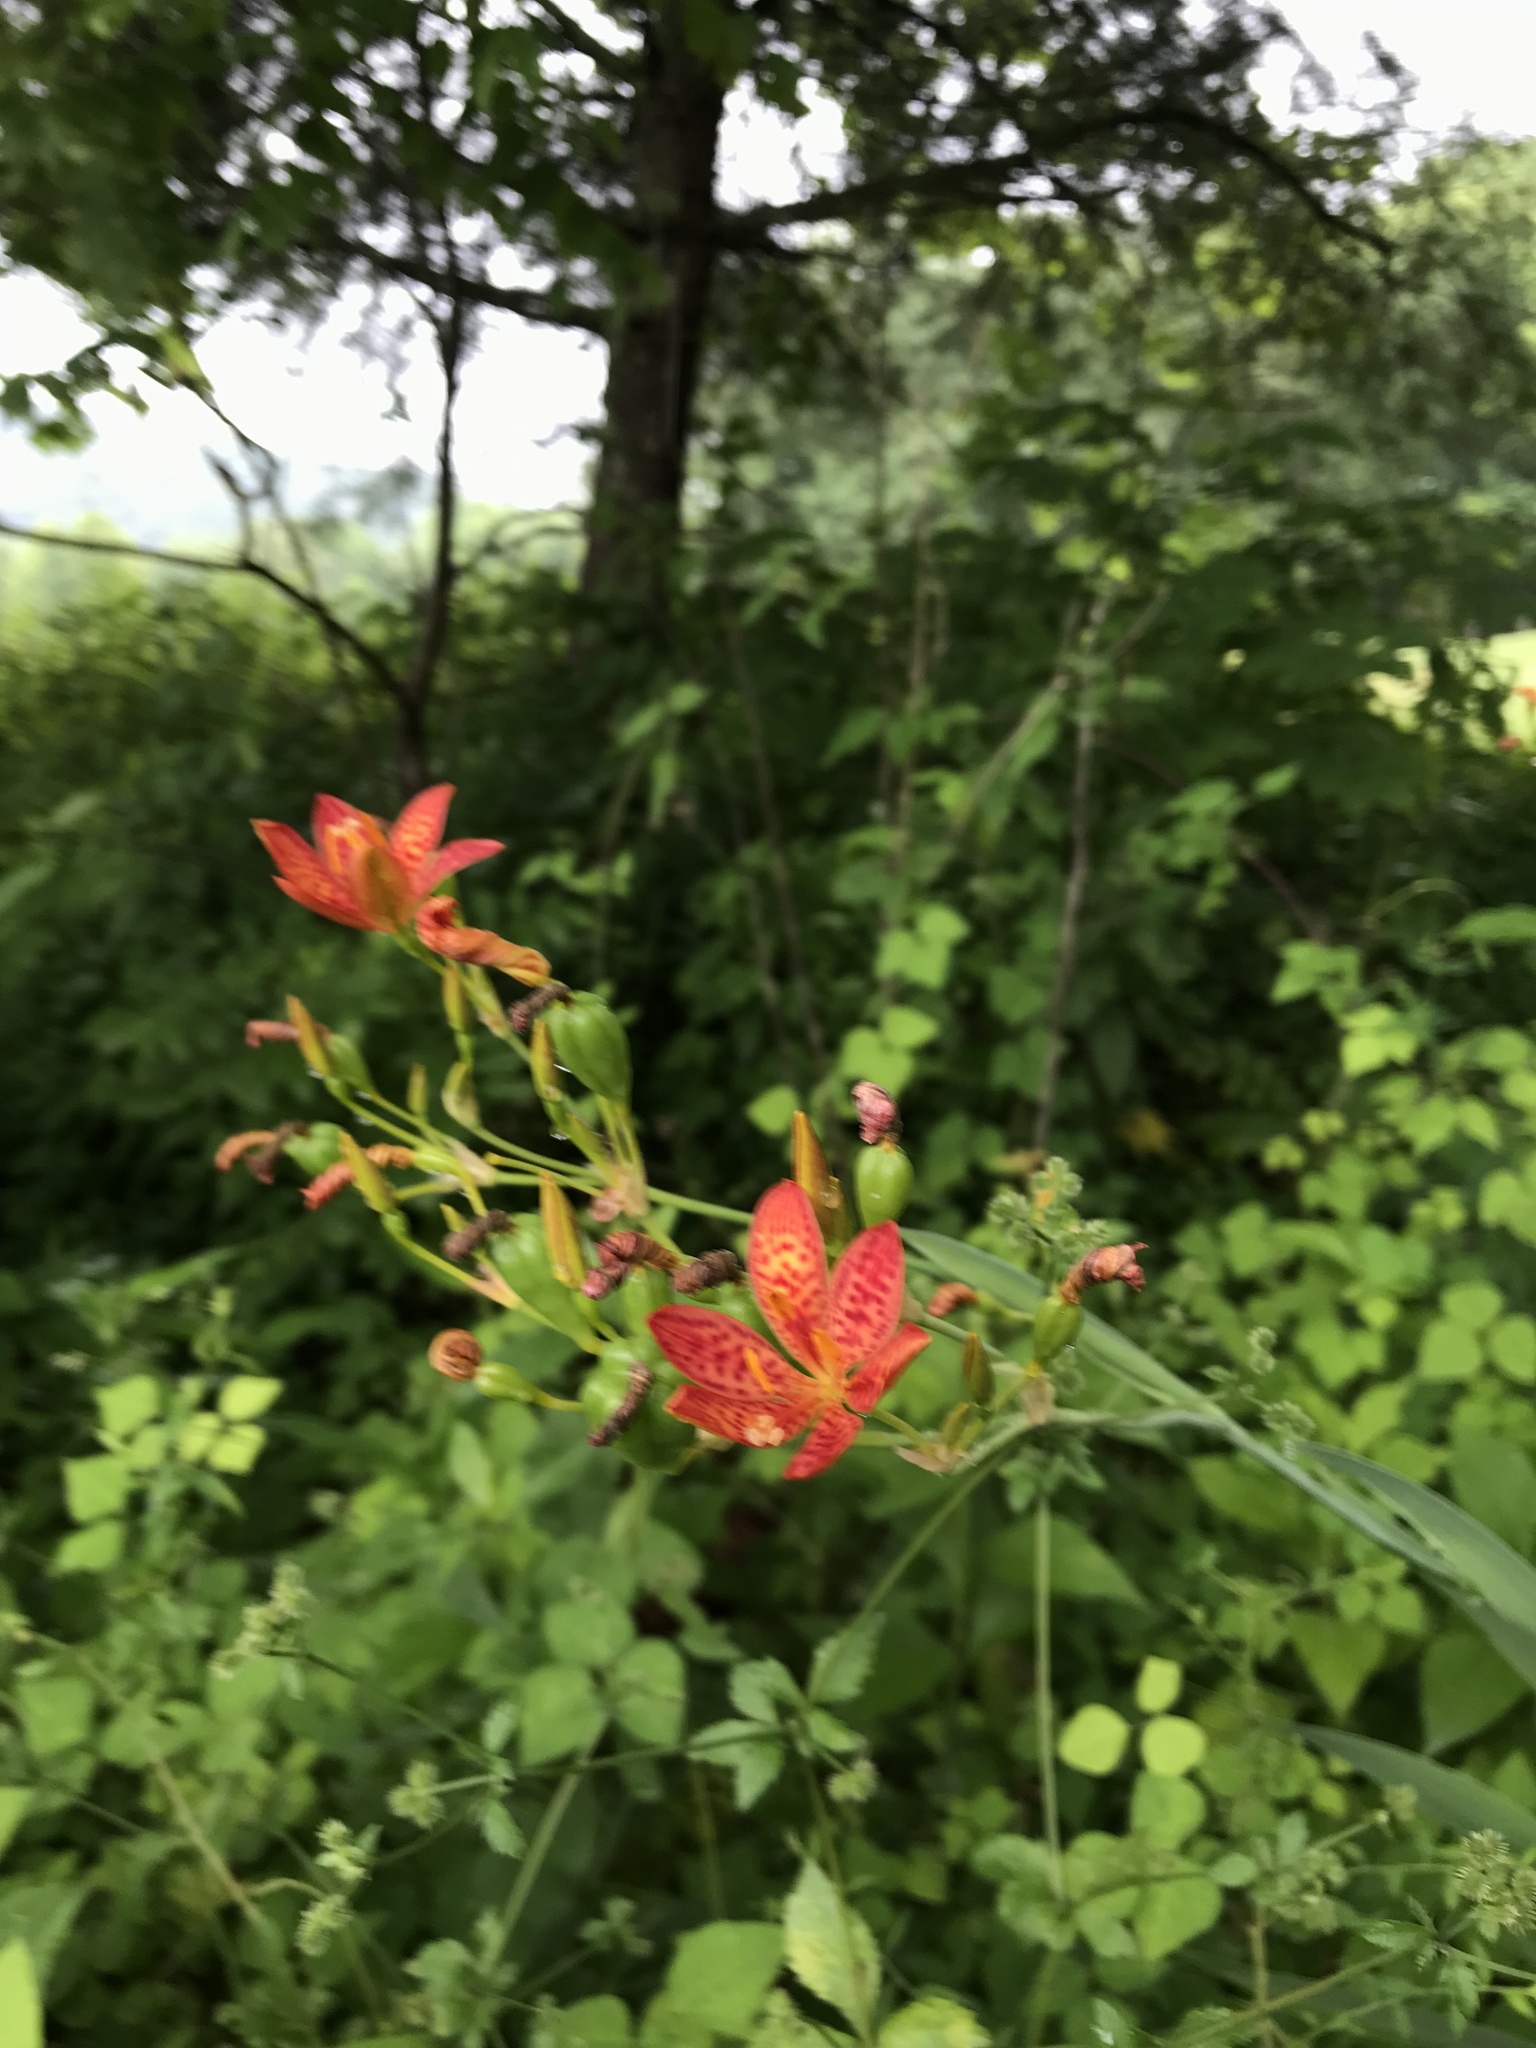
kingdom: Plantae
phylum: Tracheophyta
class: Liliopsida
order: Asparagales
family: Iridaceae
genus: Iris
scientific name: Iris domestica
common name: Belamcanda
